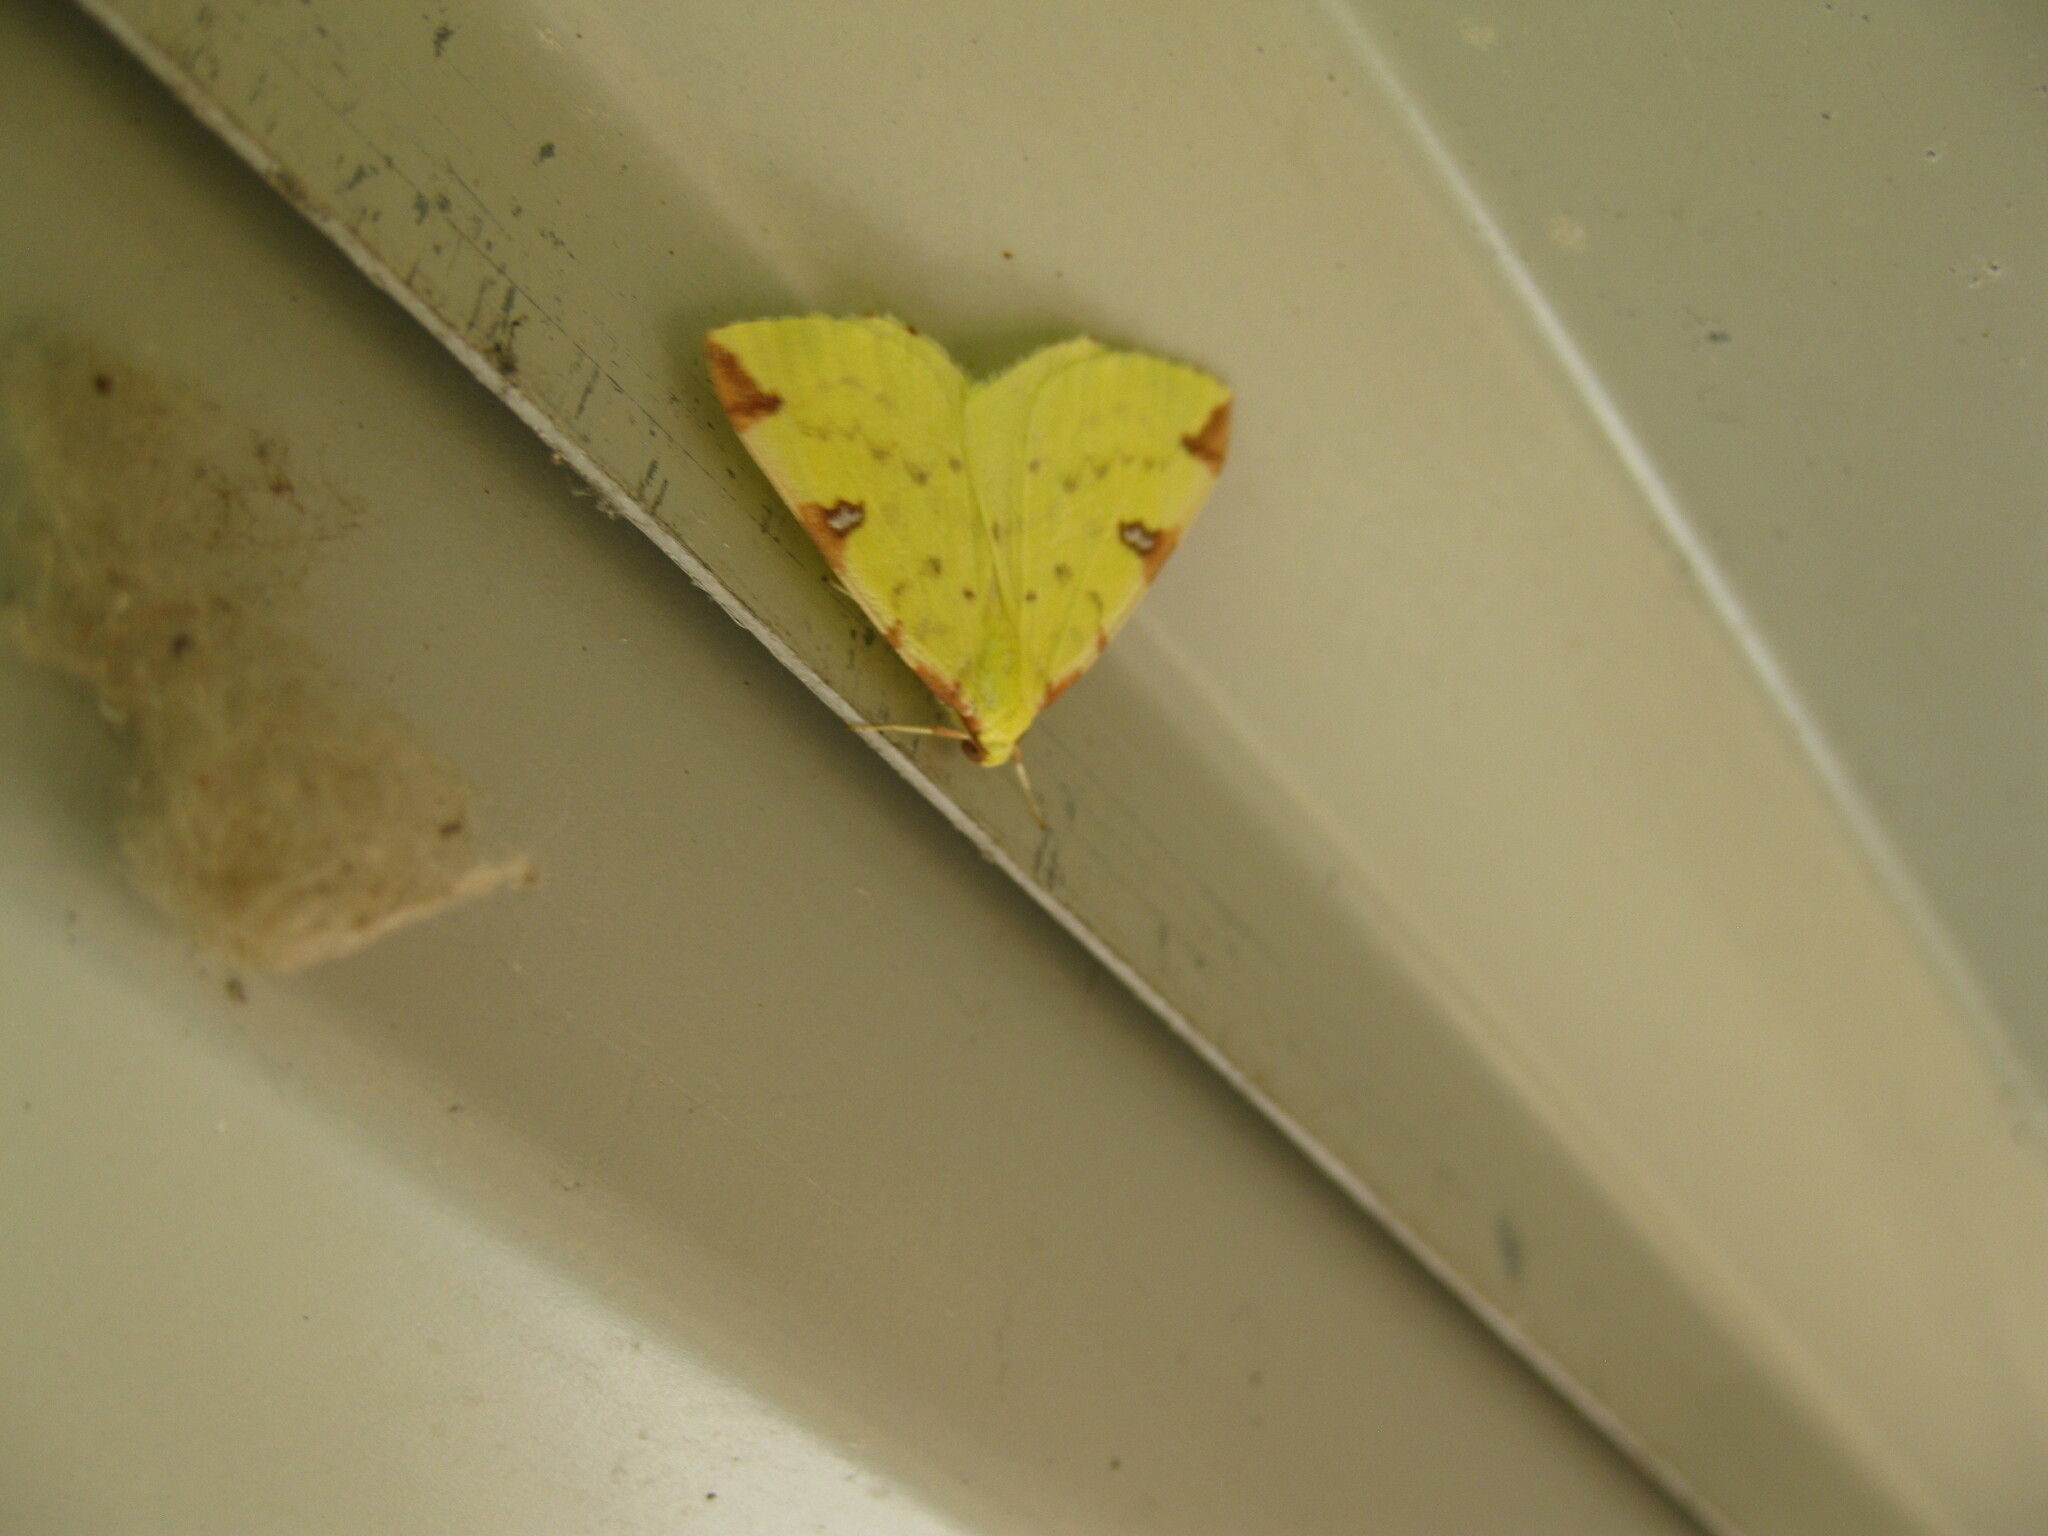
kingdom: Animalia
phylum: Arthropoda
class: Insecta
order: Lepidoptera
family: Geometridae
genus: Opisthograptis
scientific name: Opisthograptis luteolata
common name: Brimstone moth
